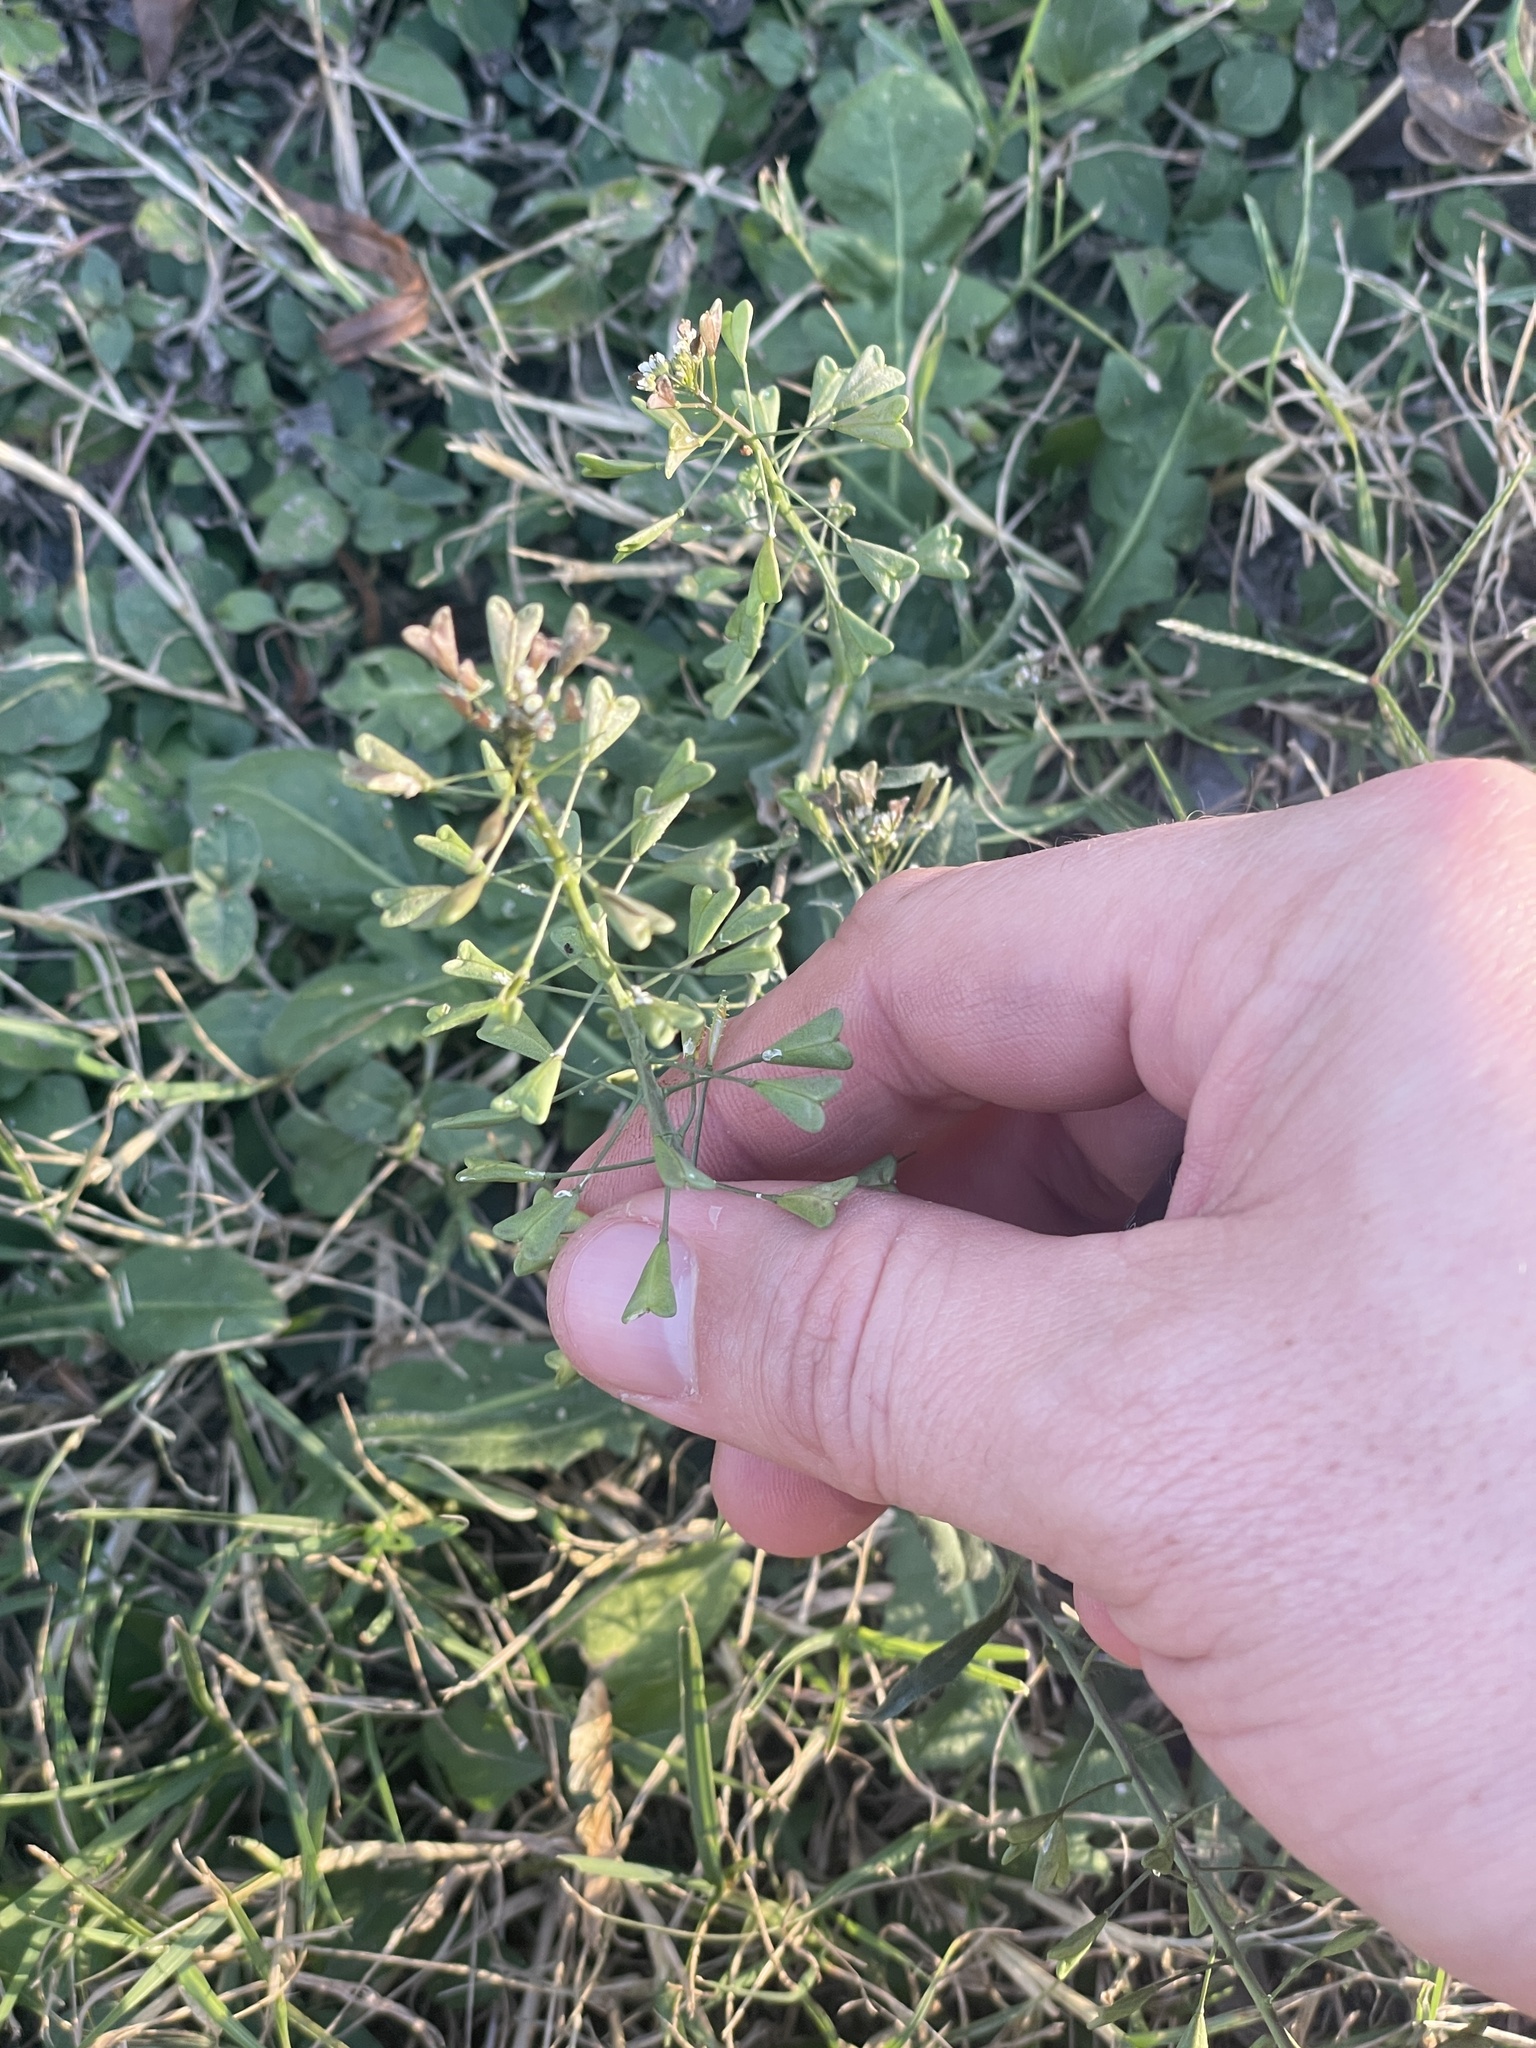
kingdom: Plantae
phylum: Tracheophyta
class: Magnoliopsida
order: Brassicales
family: Brassicaceae
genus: Capsella
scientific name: Capsella bursa-pastoris
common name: Shepherd's purse
